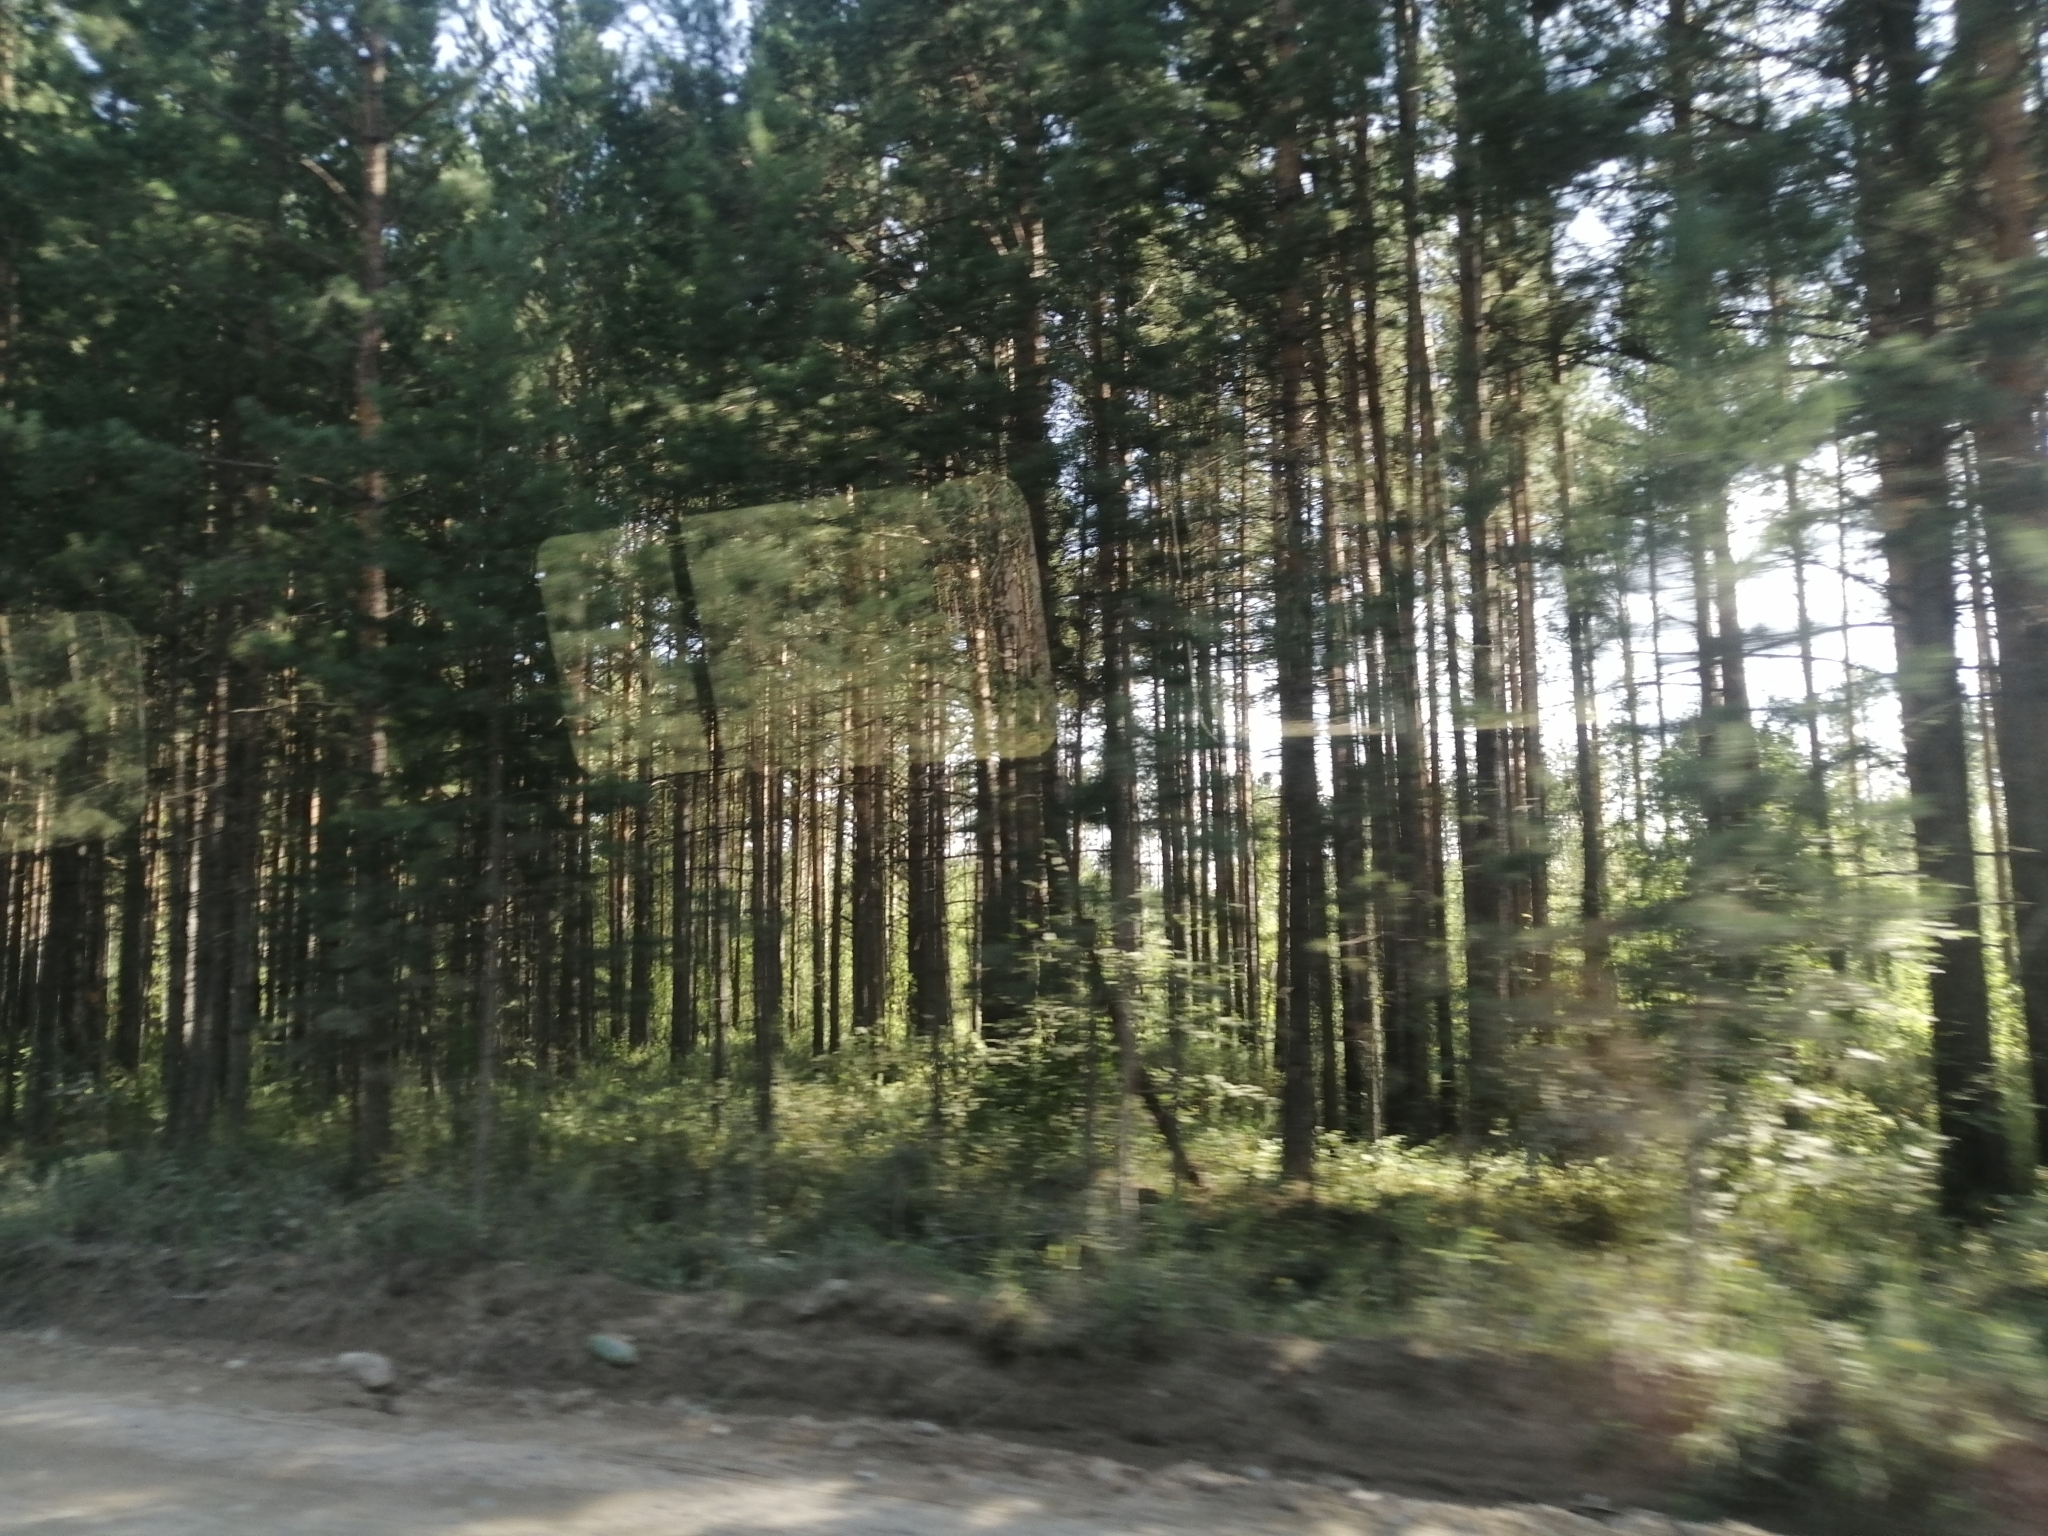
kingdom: Plantae
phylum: Tracheophyta
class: Pinopsida
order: Pinales
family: Pinaceae
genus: Pinus
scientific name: Pinus sylvestris
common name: Scots pine
